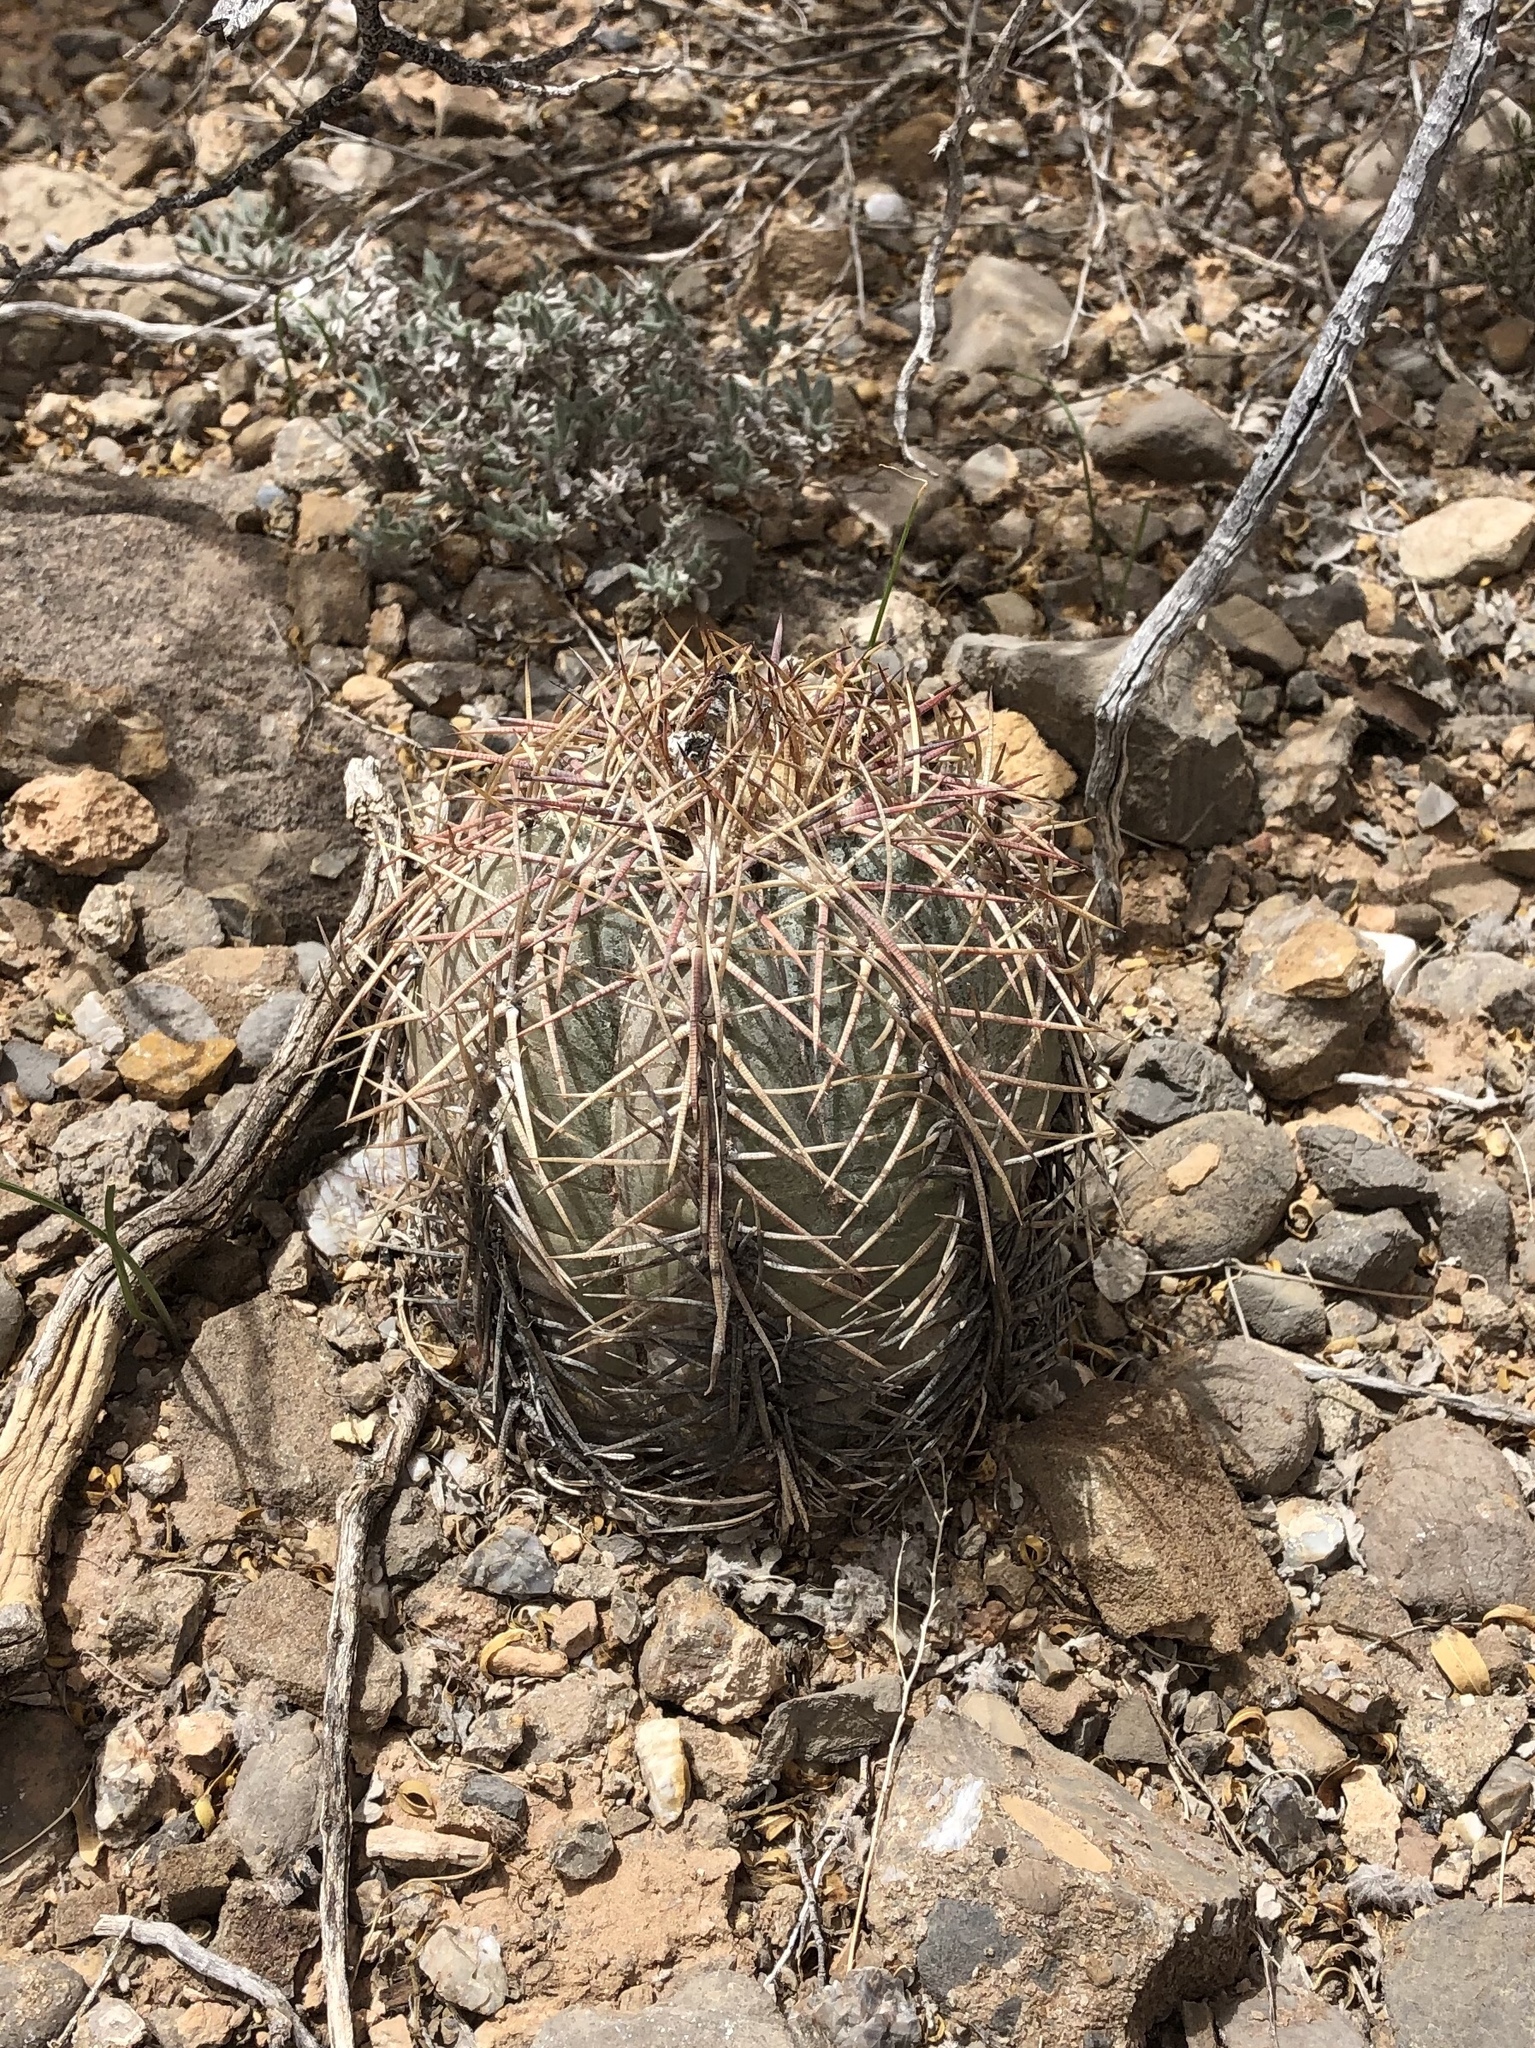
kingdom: Plantae
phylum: Tracheophyta
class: Magnoliopsida
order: Caryophyllales
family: Cactaceae
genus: Echinocactus
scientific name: Echinocactus horizonthalonius
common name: Devilshead
